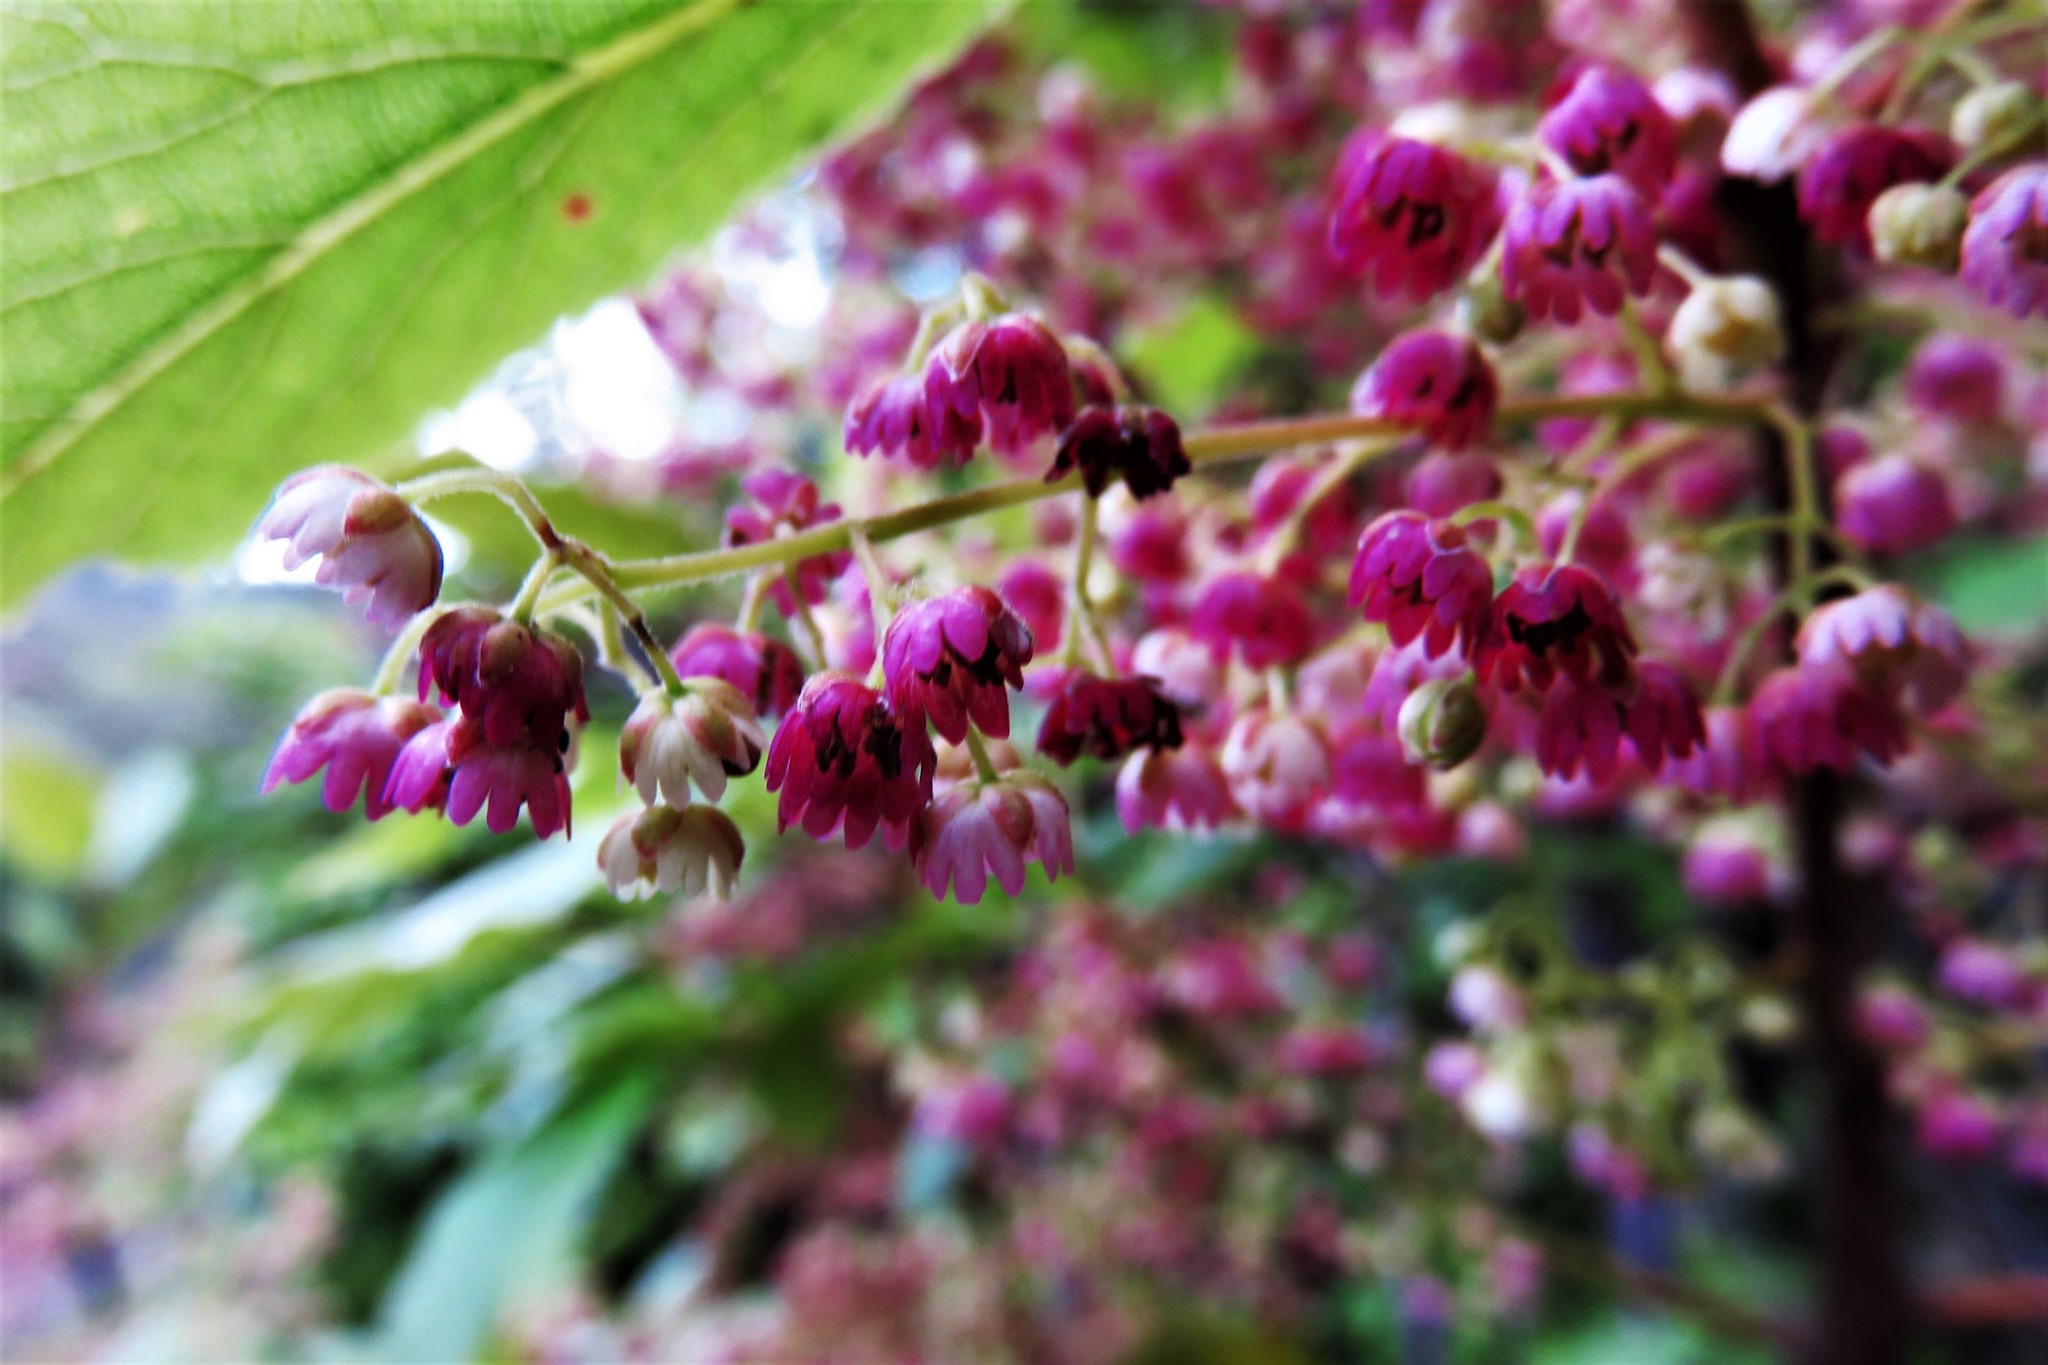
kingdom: Plantae
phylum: Tracheophyta
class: Magnoliopsida
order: Oxalidales
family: Elaeocarpaceae
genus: Aristotelia
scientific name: Aristotelia serrata
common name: New zealand wineberry
